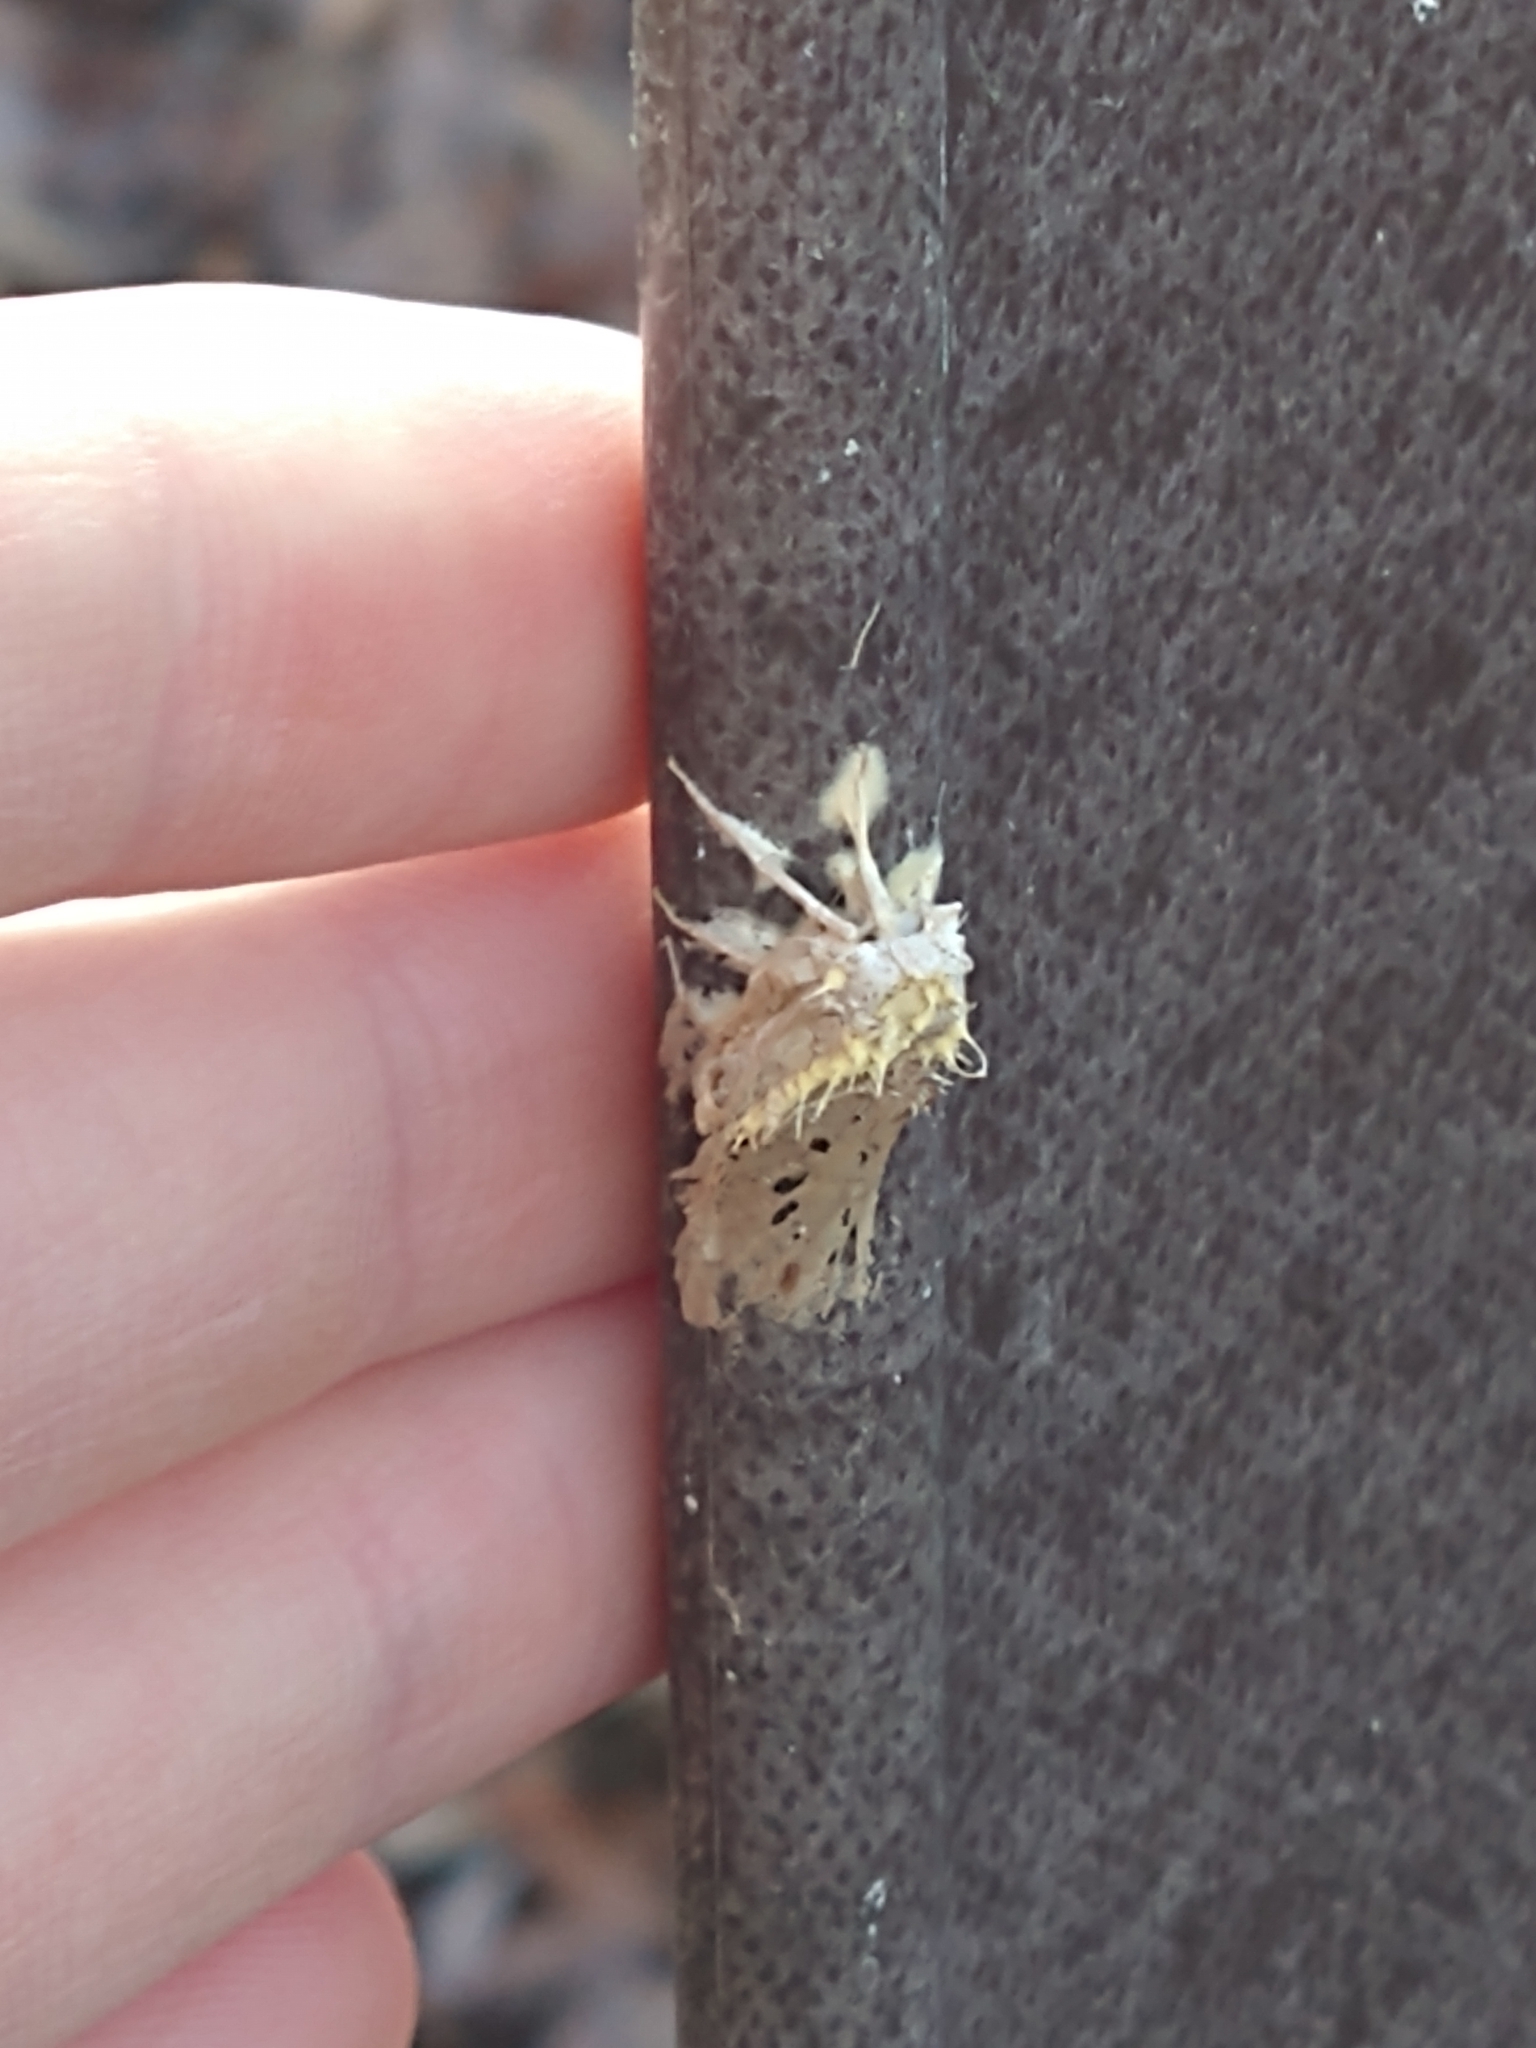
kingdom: Fungi
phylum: Ascomycota
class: Sordariomycetes
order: Hypocreales
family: Cordycipitaceae
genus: Akanthomyces
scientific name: Akanthomyces aculeatus
